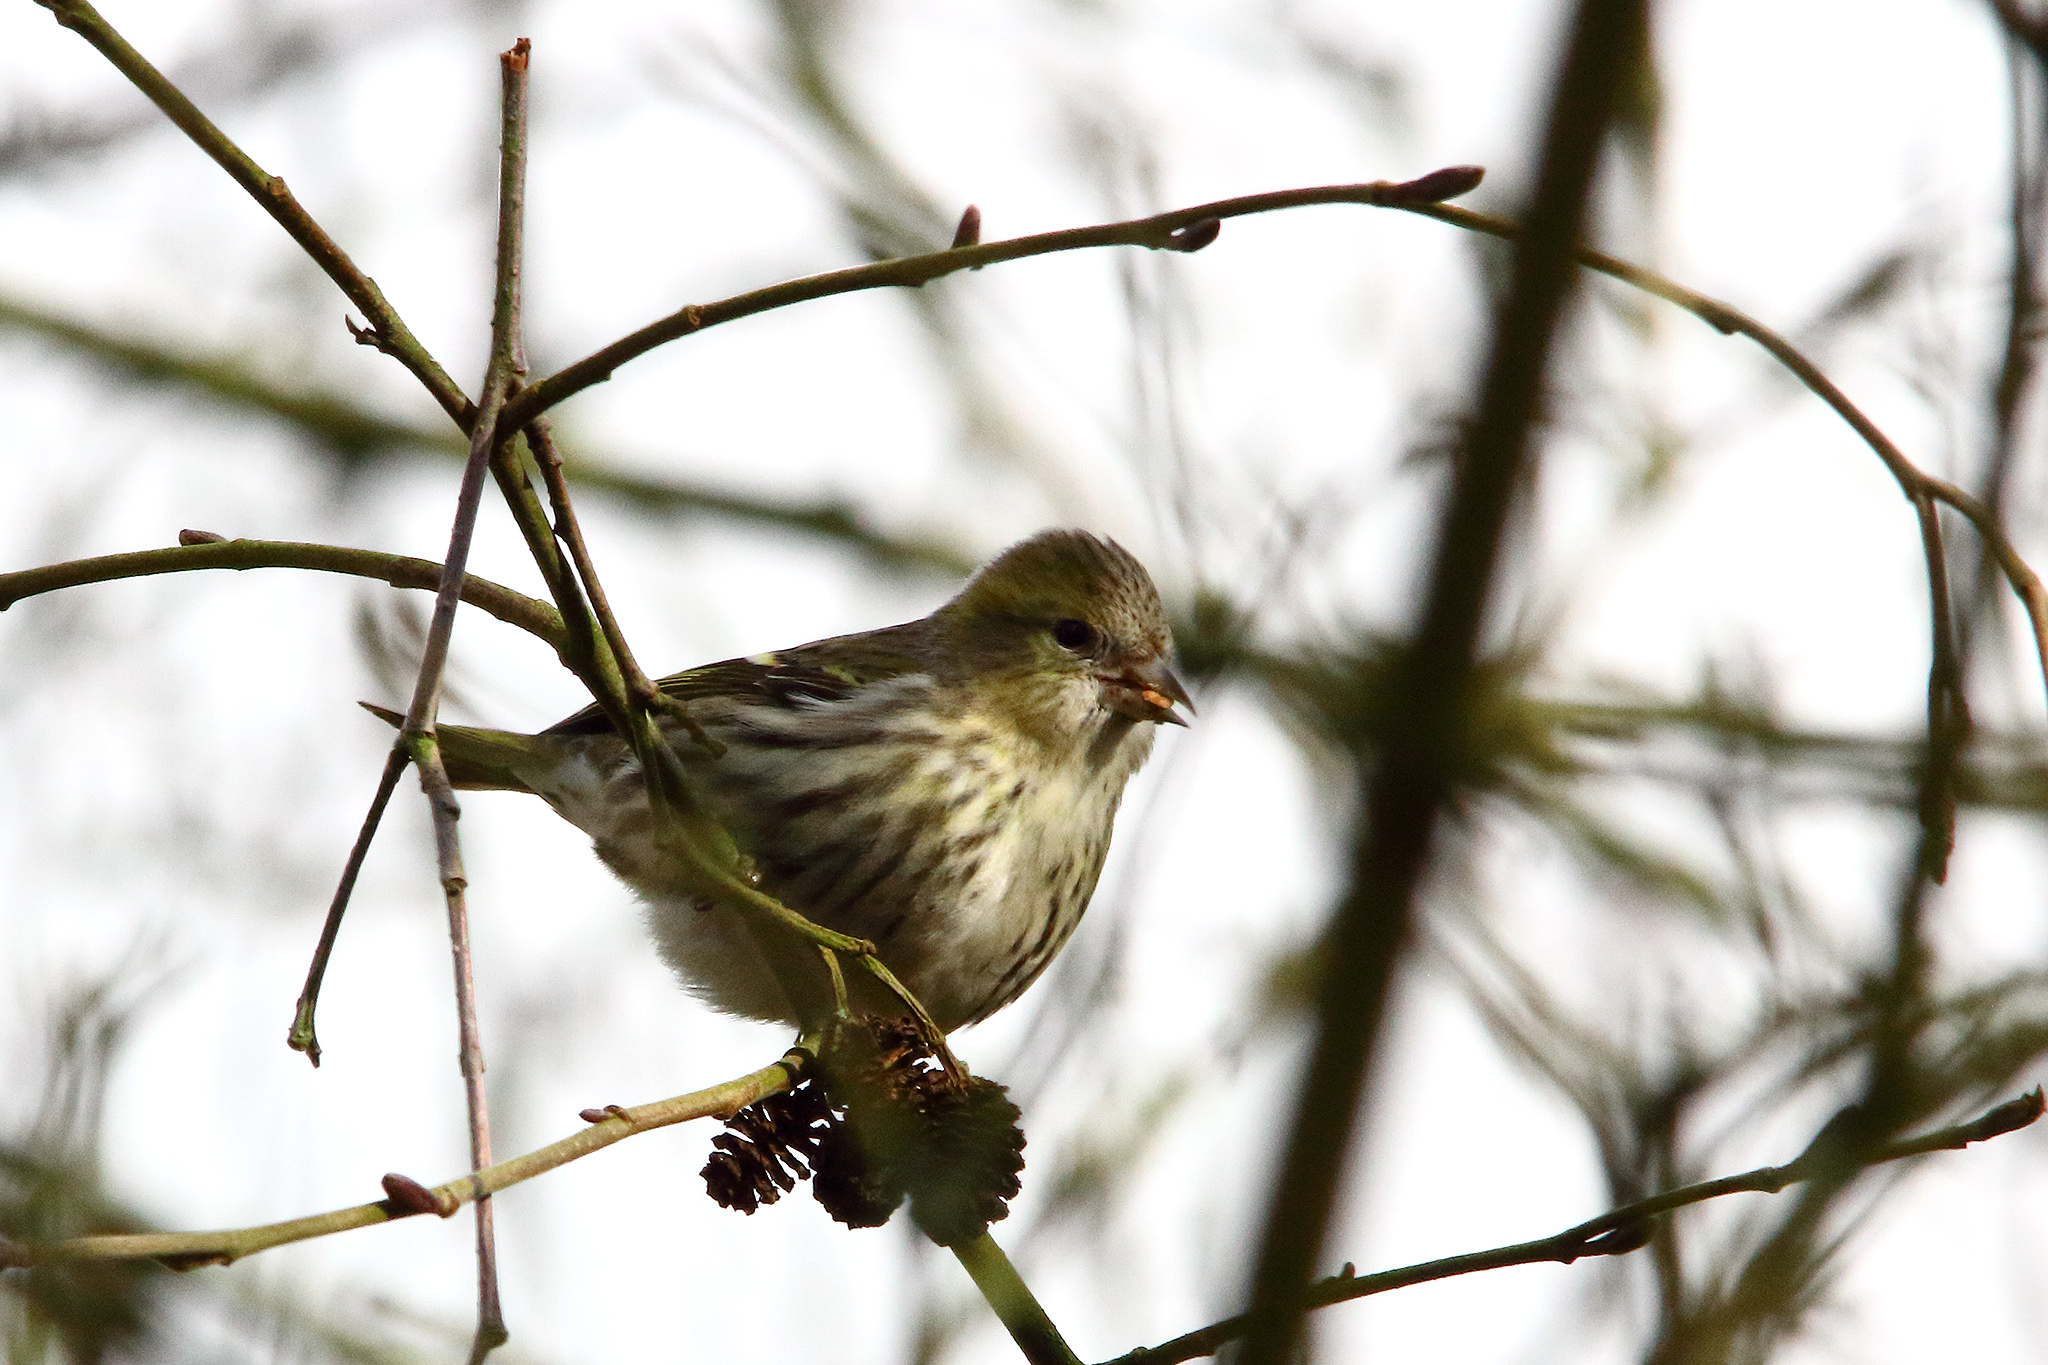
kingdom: Animalia
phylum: Chordata
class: Aves
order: Passeriformes
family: Fringillidae
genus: Spinus
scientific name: Spinus spinus
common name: Eurasian siskin
